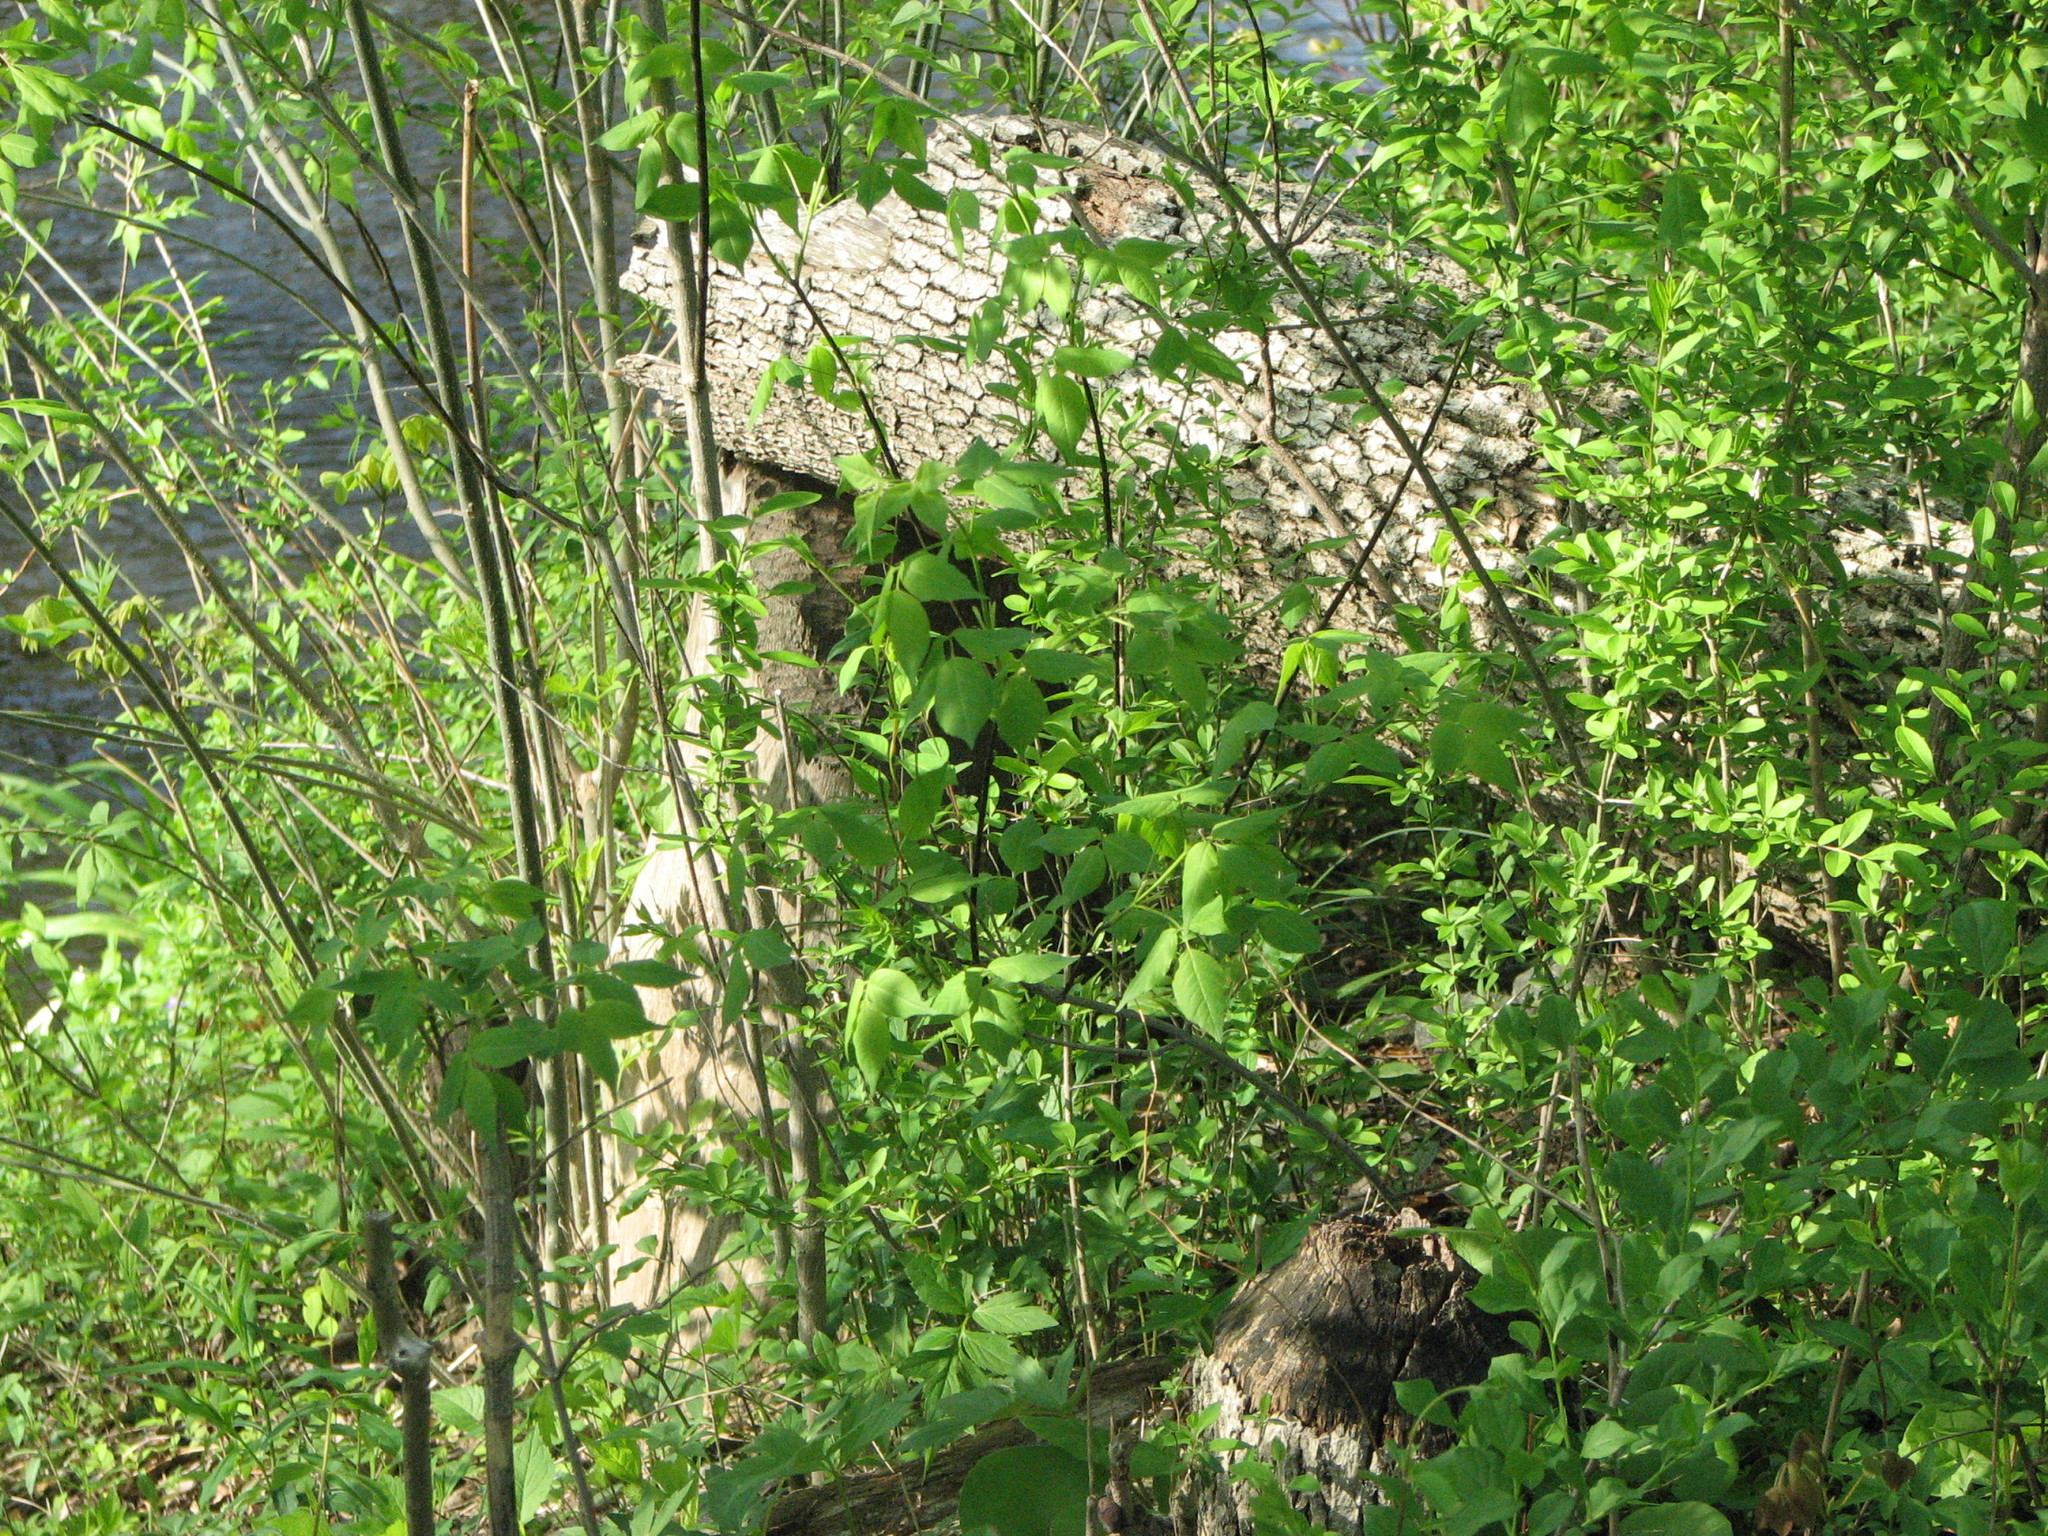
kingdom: Animalia
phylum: Chordata
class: Mammalia
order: Rodentia
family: Castoridae
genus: Castor
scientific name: Castor canadensis
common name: American beaver
